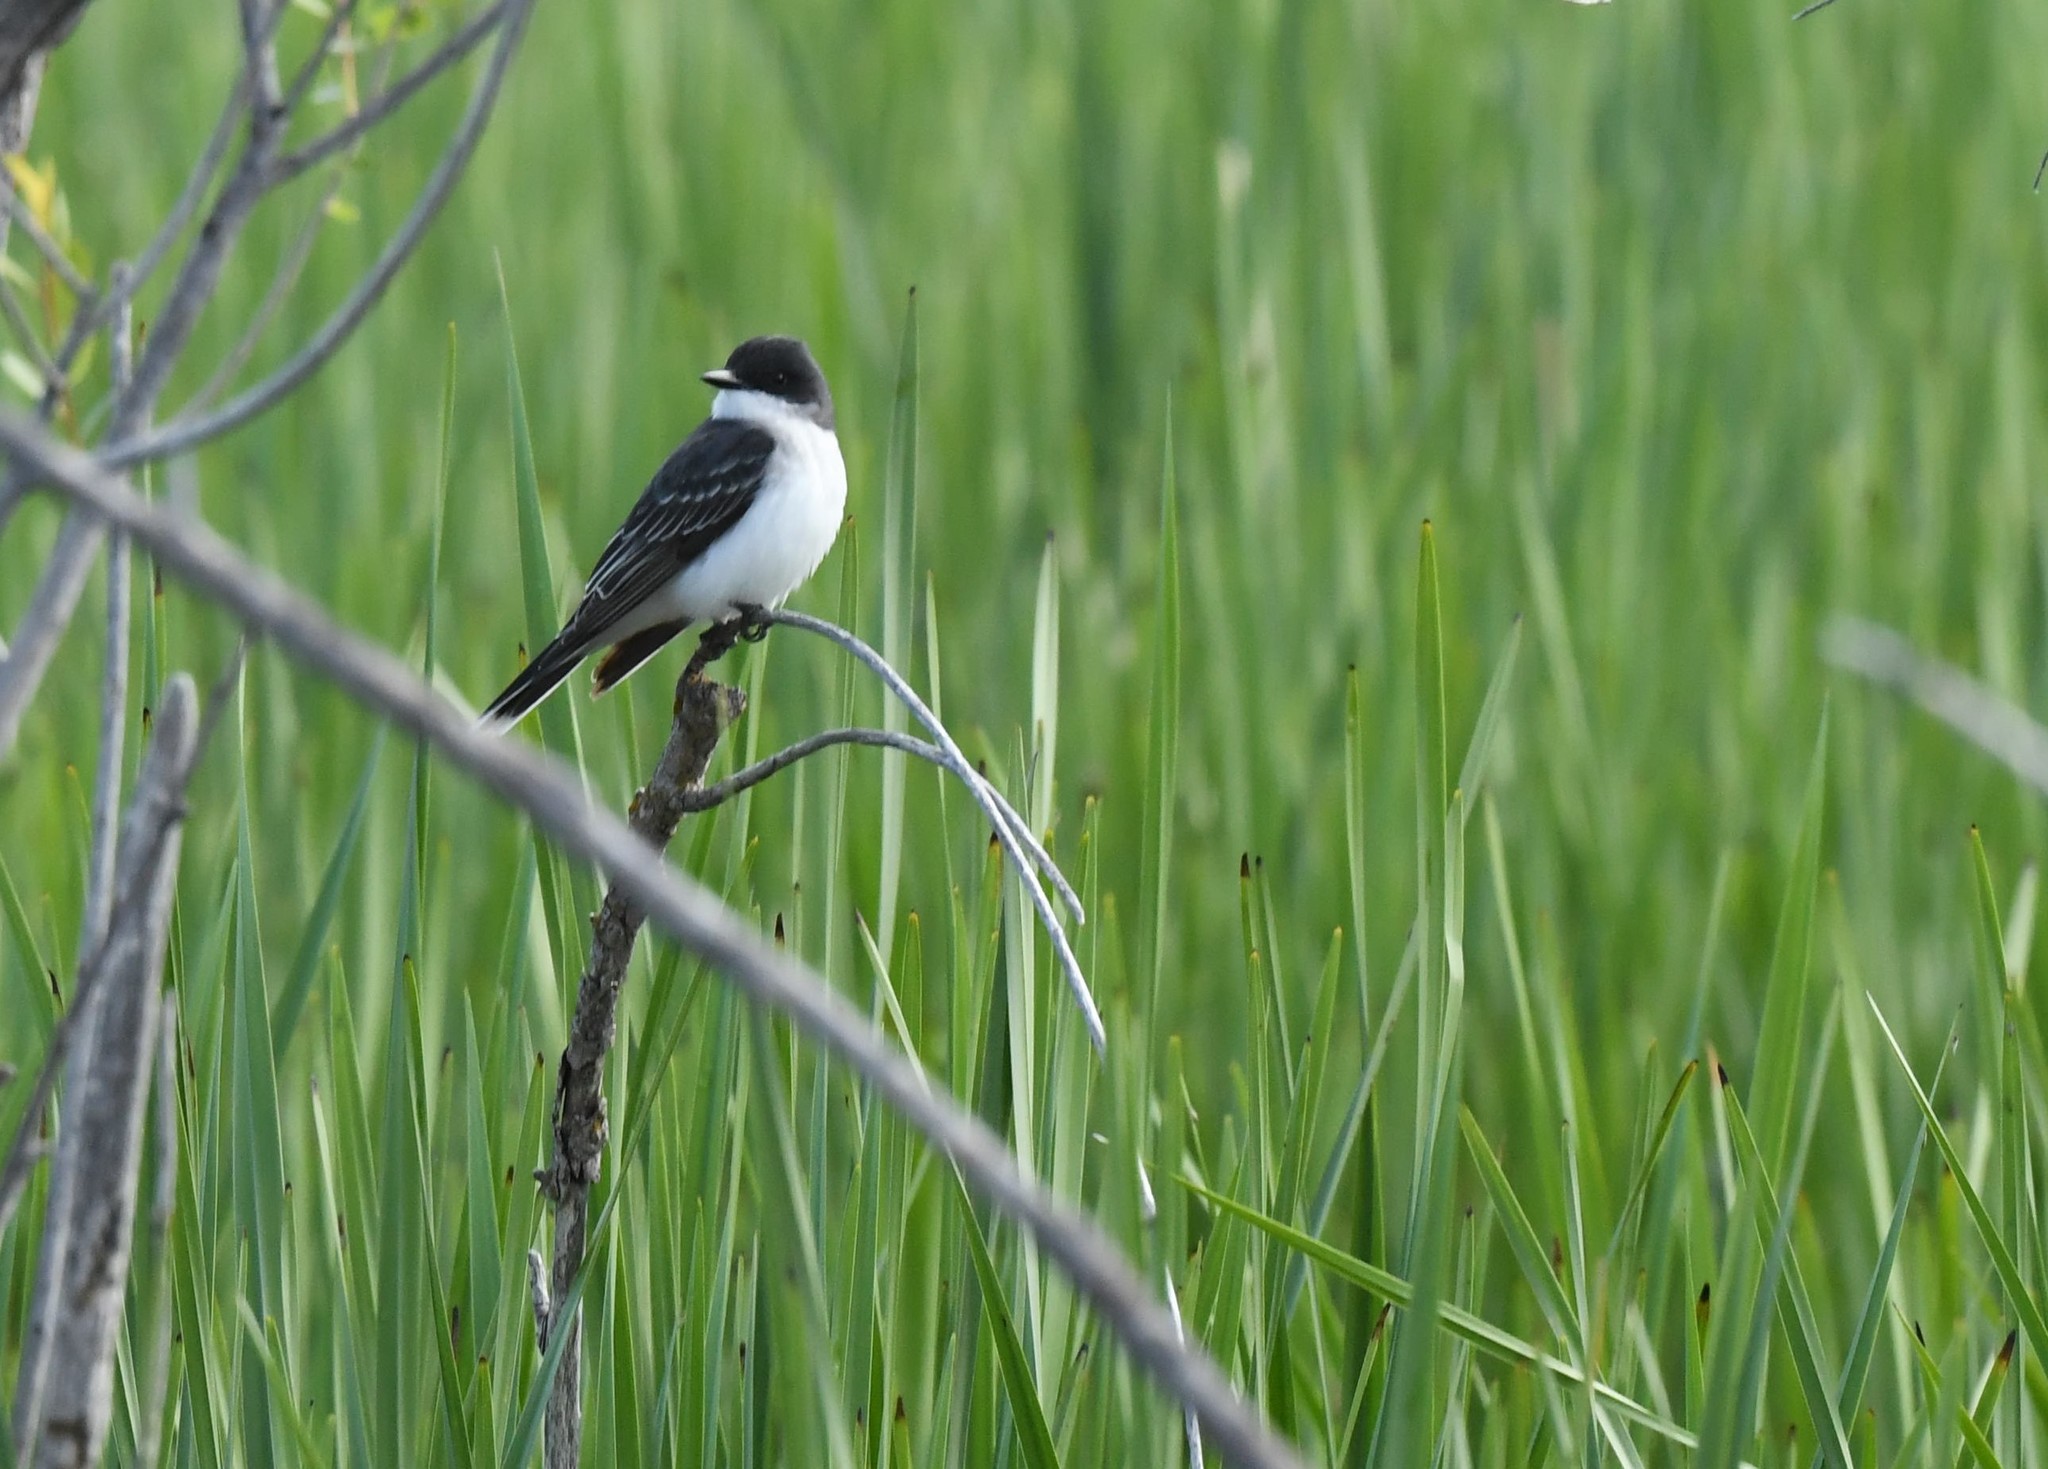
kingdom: Animalia
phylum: Chordata
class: Aves
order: Passeriformes
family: Tyrannidae
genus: Tyrannus
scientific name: Tyrannus tyrannus
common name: Eastern kingbird
